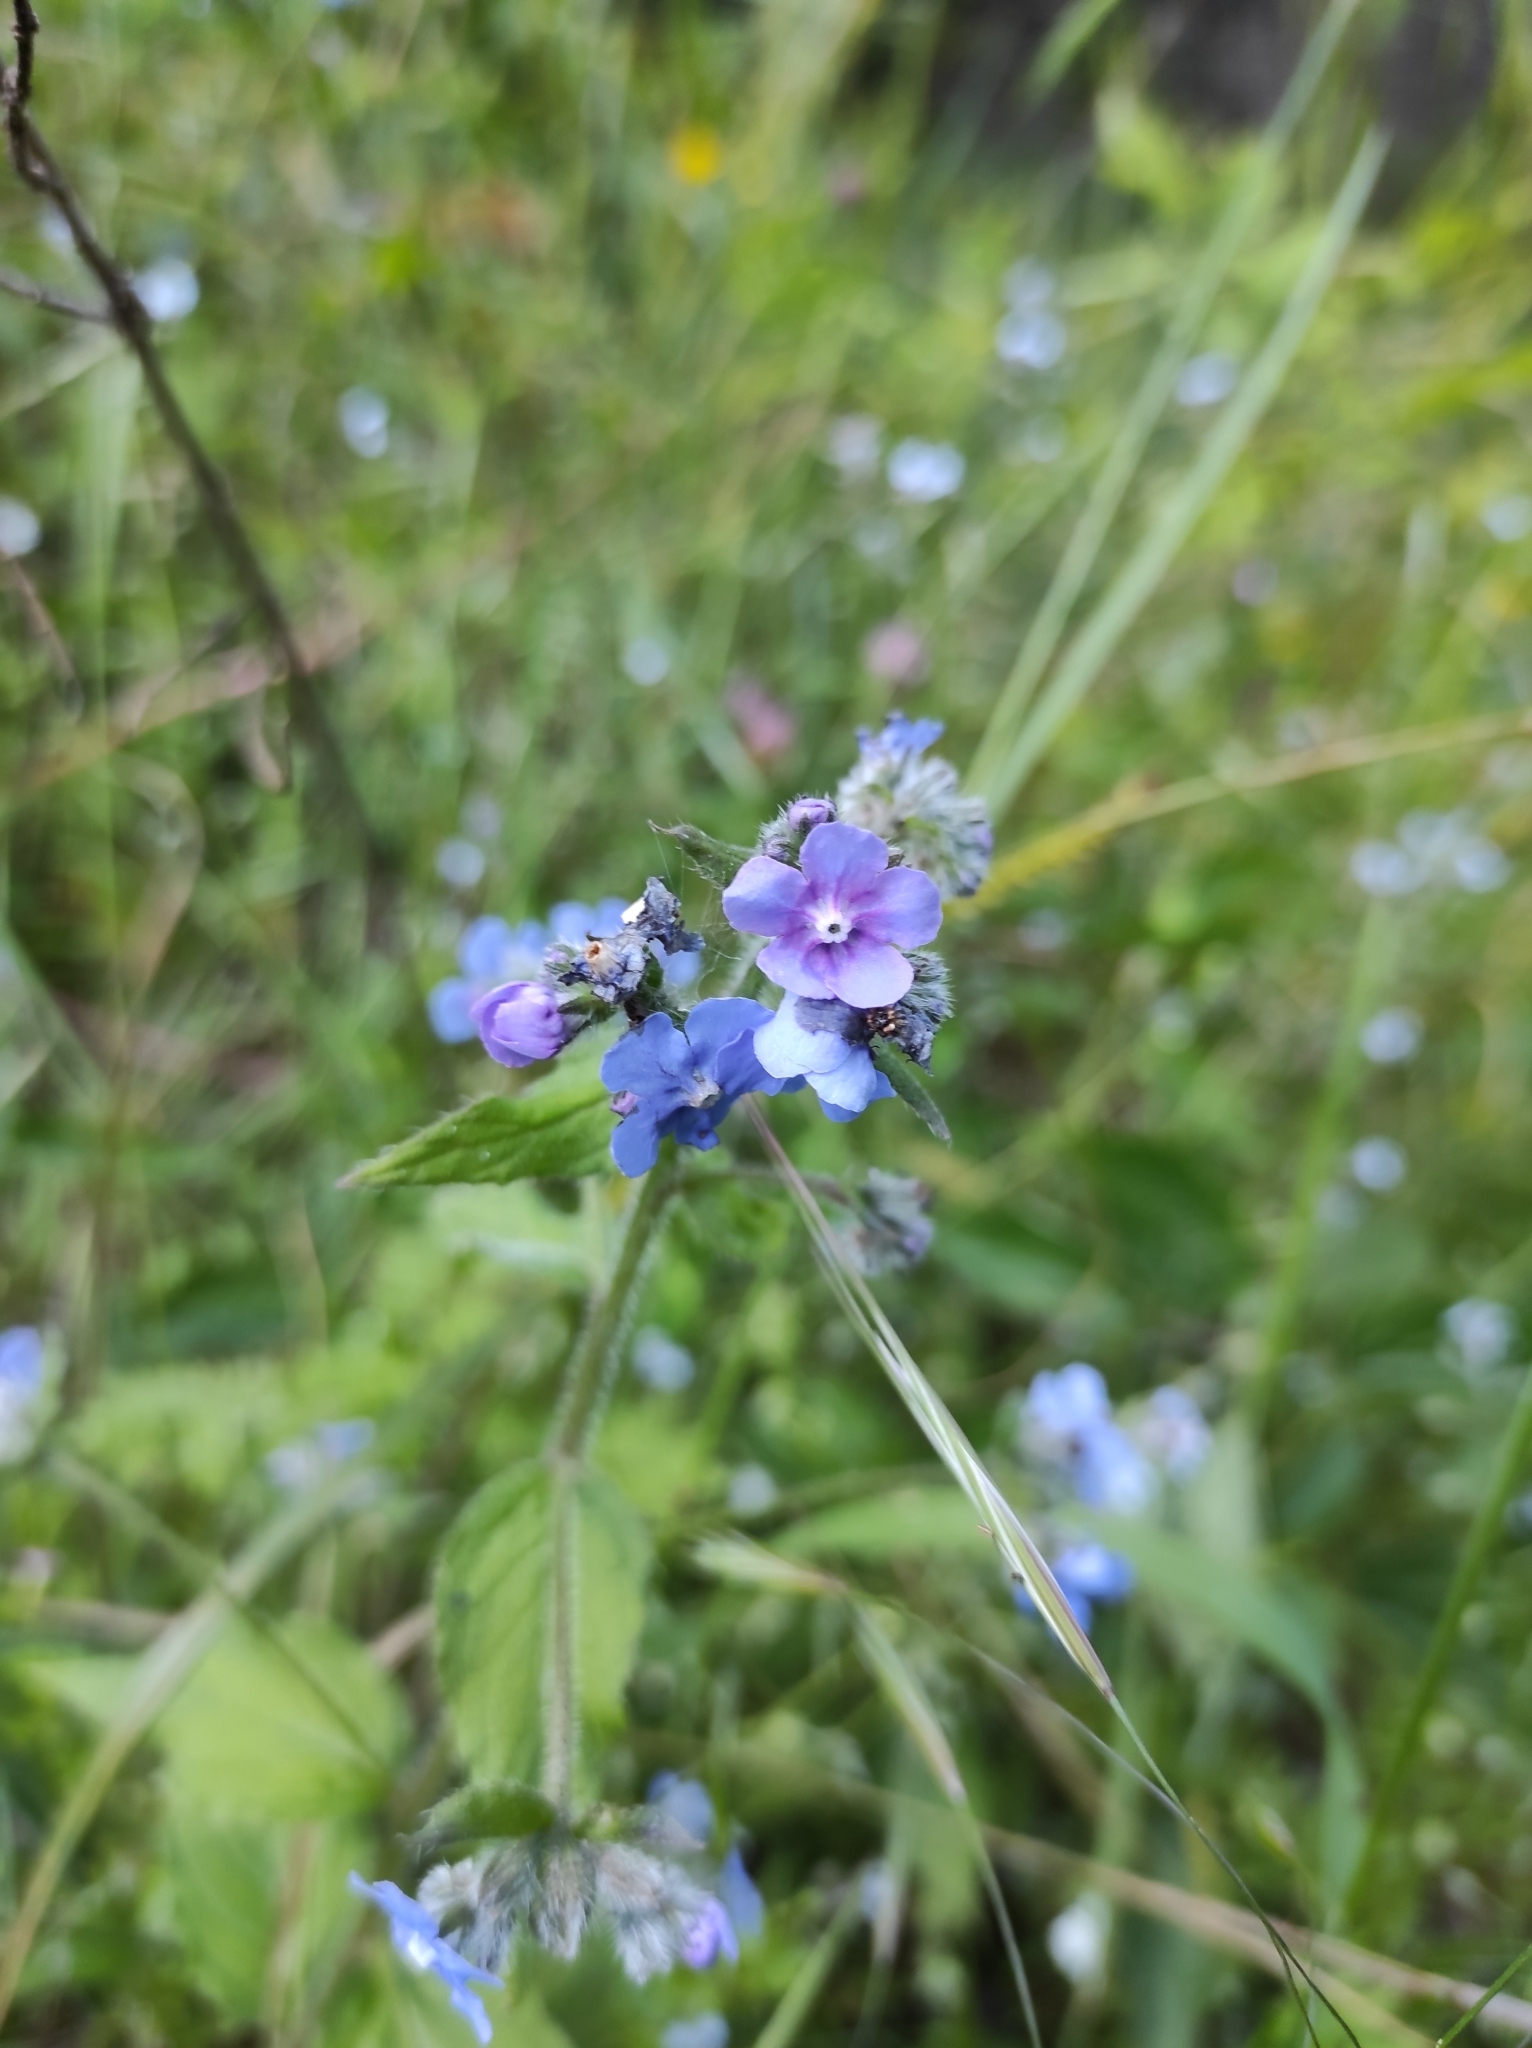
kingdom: Plantae
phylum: Tracheophyta
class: Magnoliopsida
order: Boraginales
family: Boraginaceae
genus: Pentaglottis
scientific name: Pentaglottis sempervirens
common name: Green alkanet
